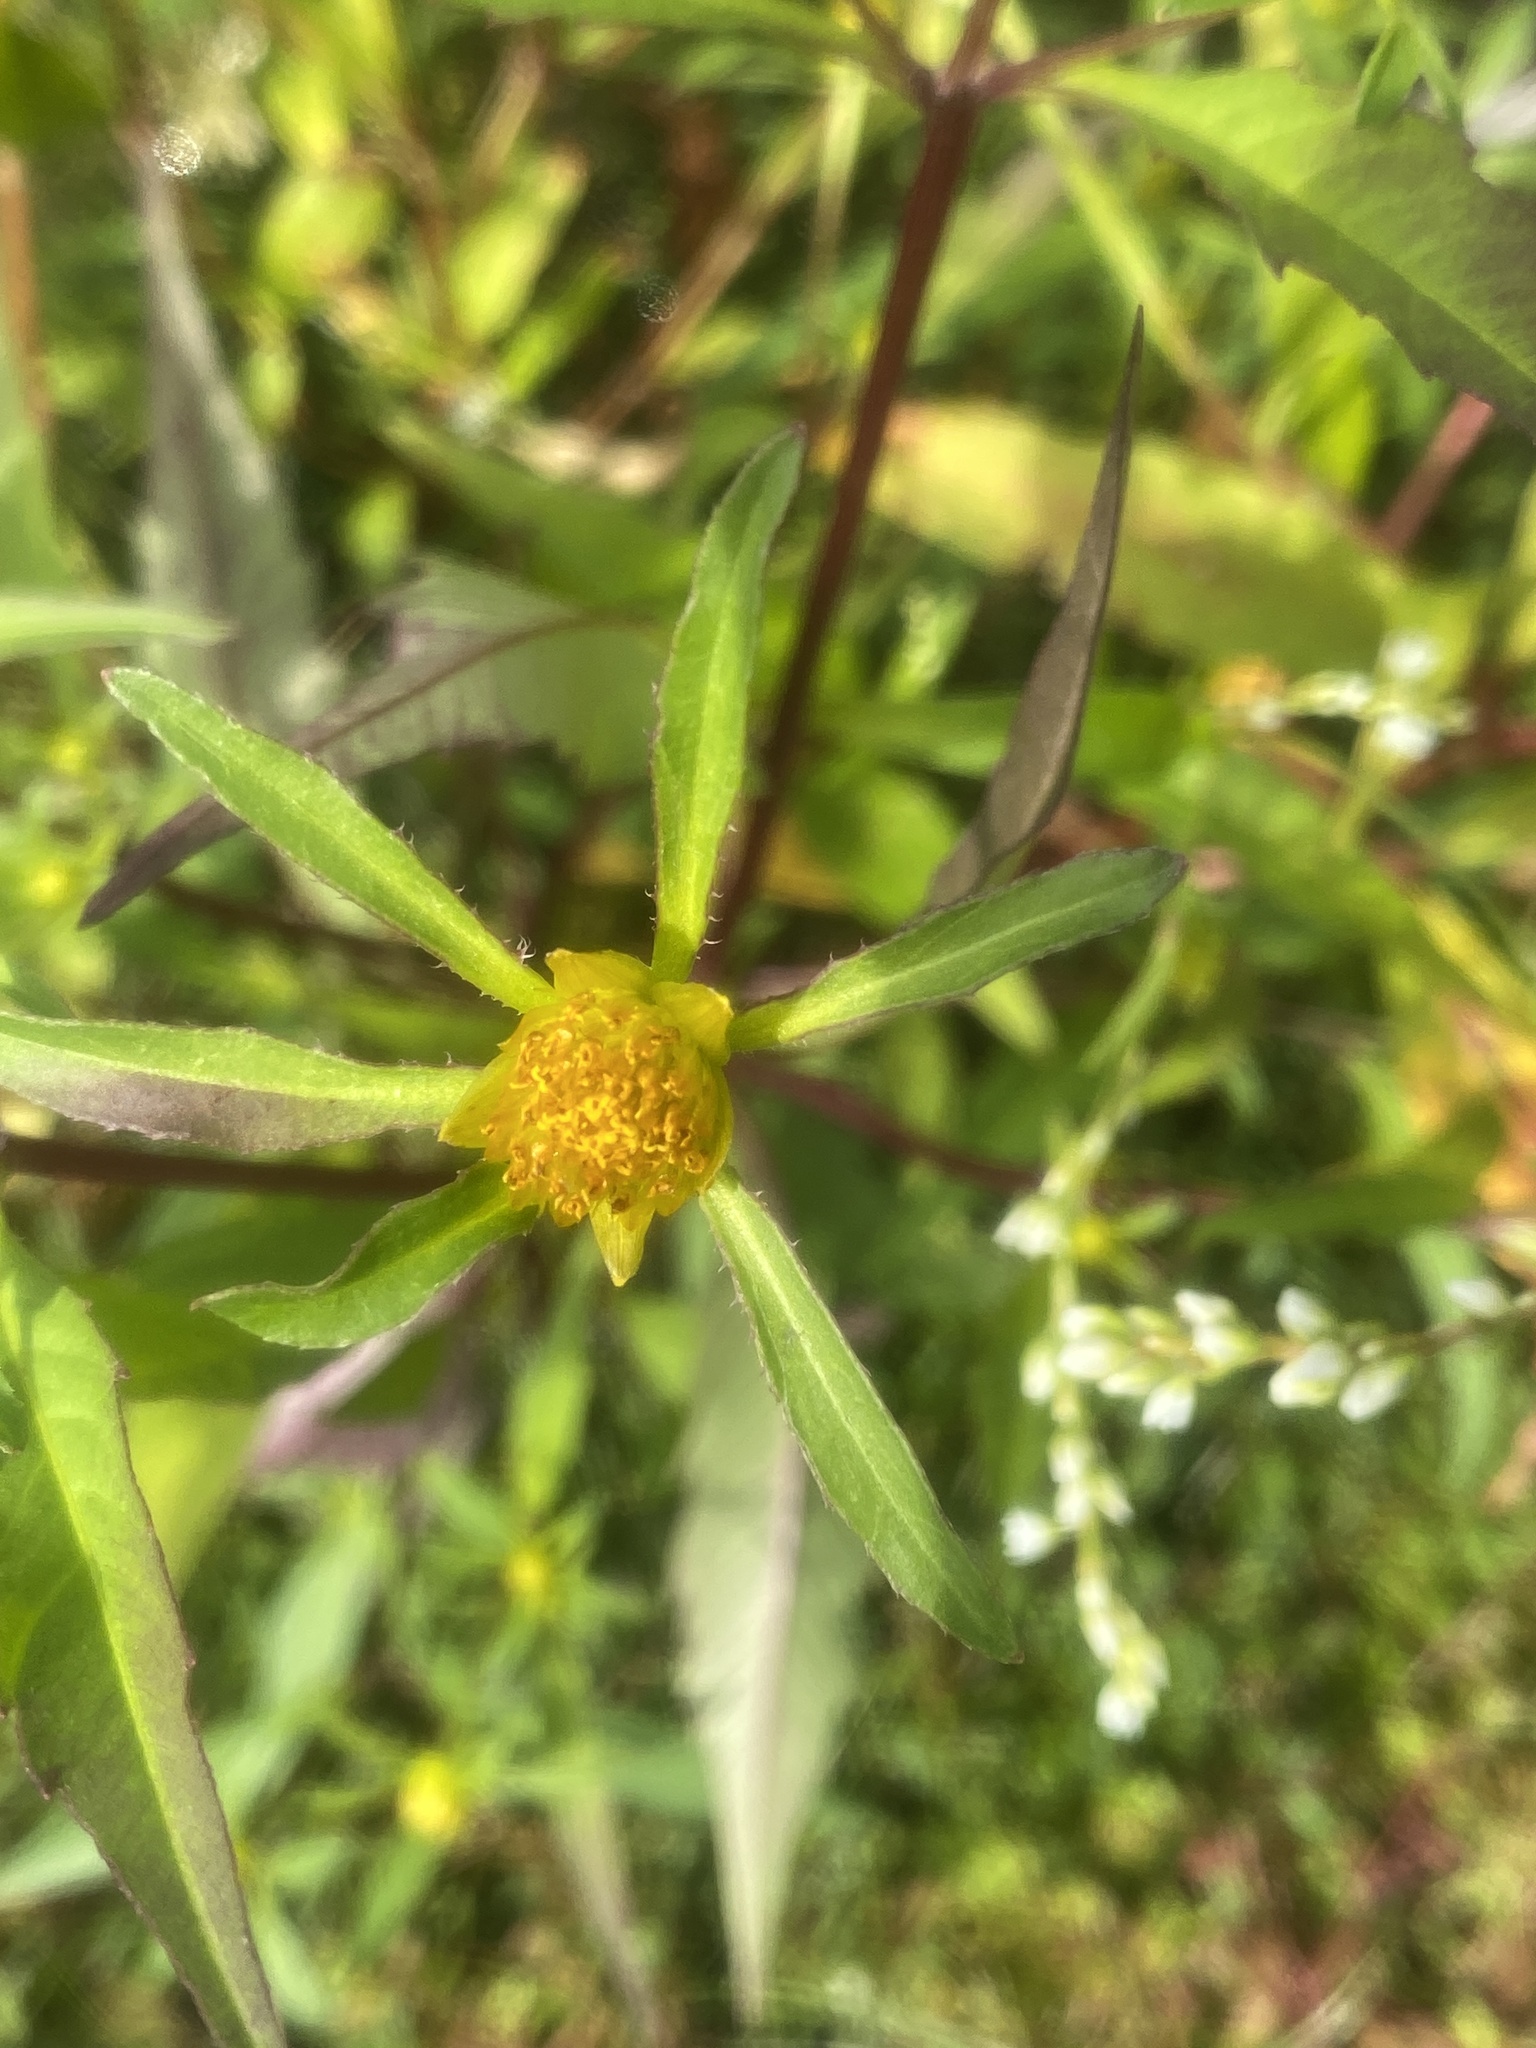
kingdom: Plantae
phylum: Tracheophyta
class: Magnoliopsida
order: Asterales
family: Asteraceae
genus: Bidens
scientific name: Bidens connata
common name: London bur-marigold
